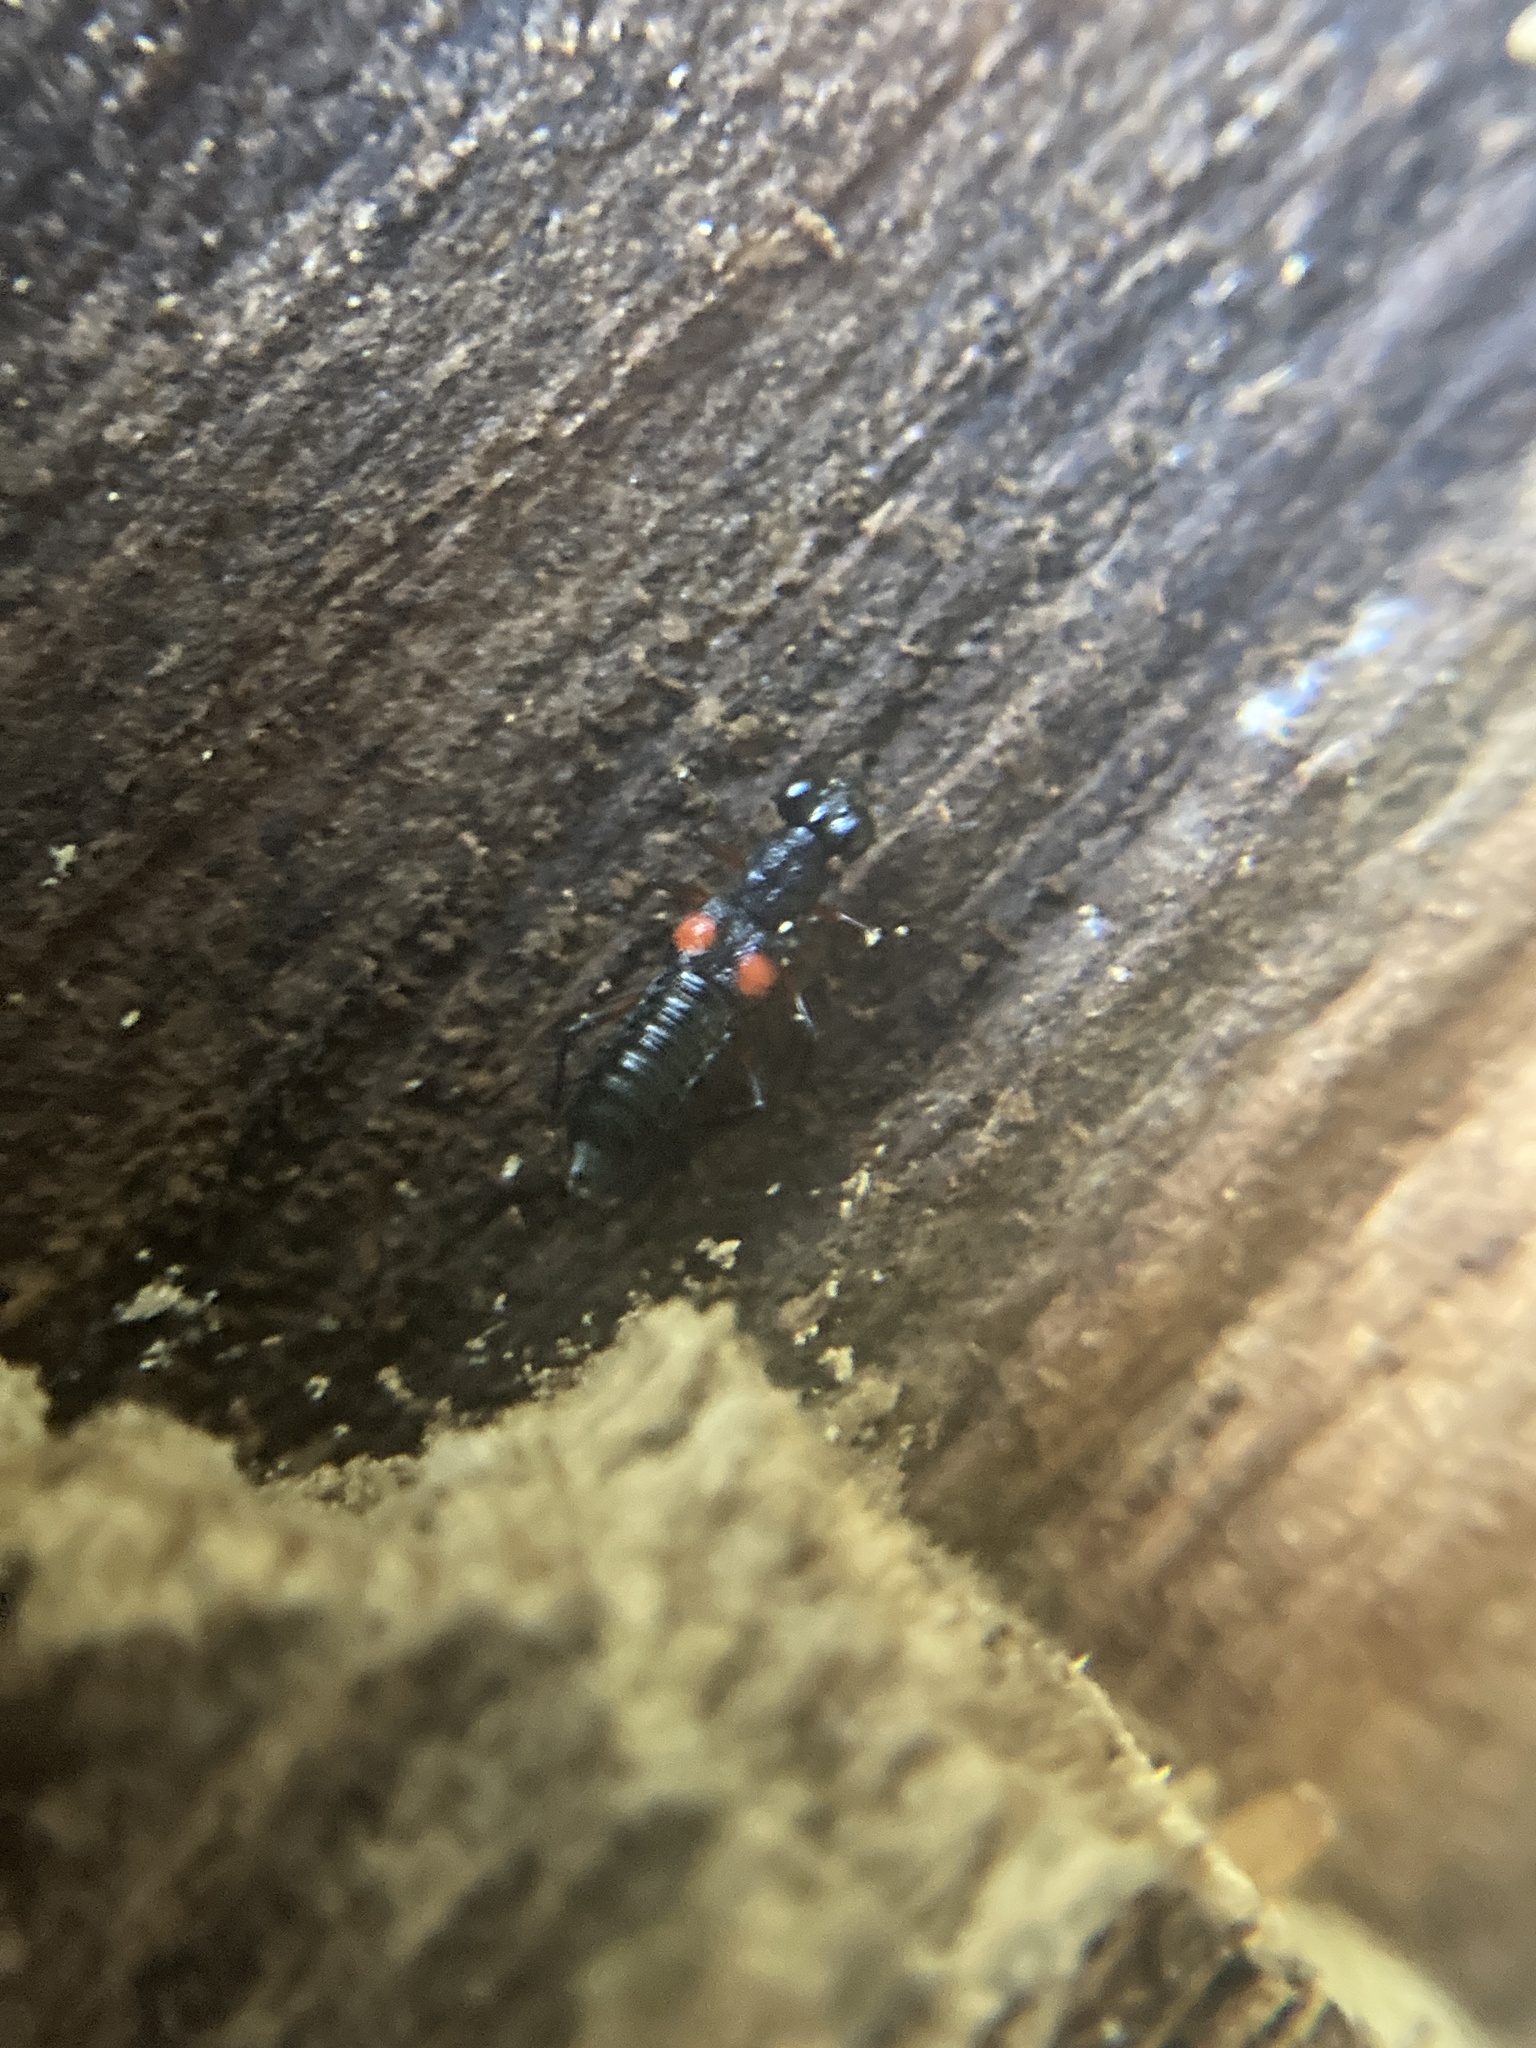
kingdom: Animalia
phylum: Arthropoda
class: Insecta
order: Coleoptera
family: Staphylinidae
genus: Stenus
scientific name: Stenus pustulifer
